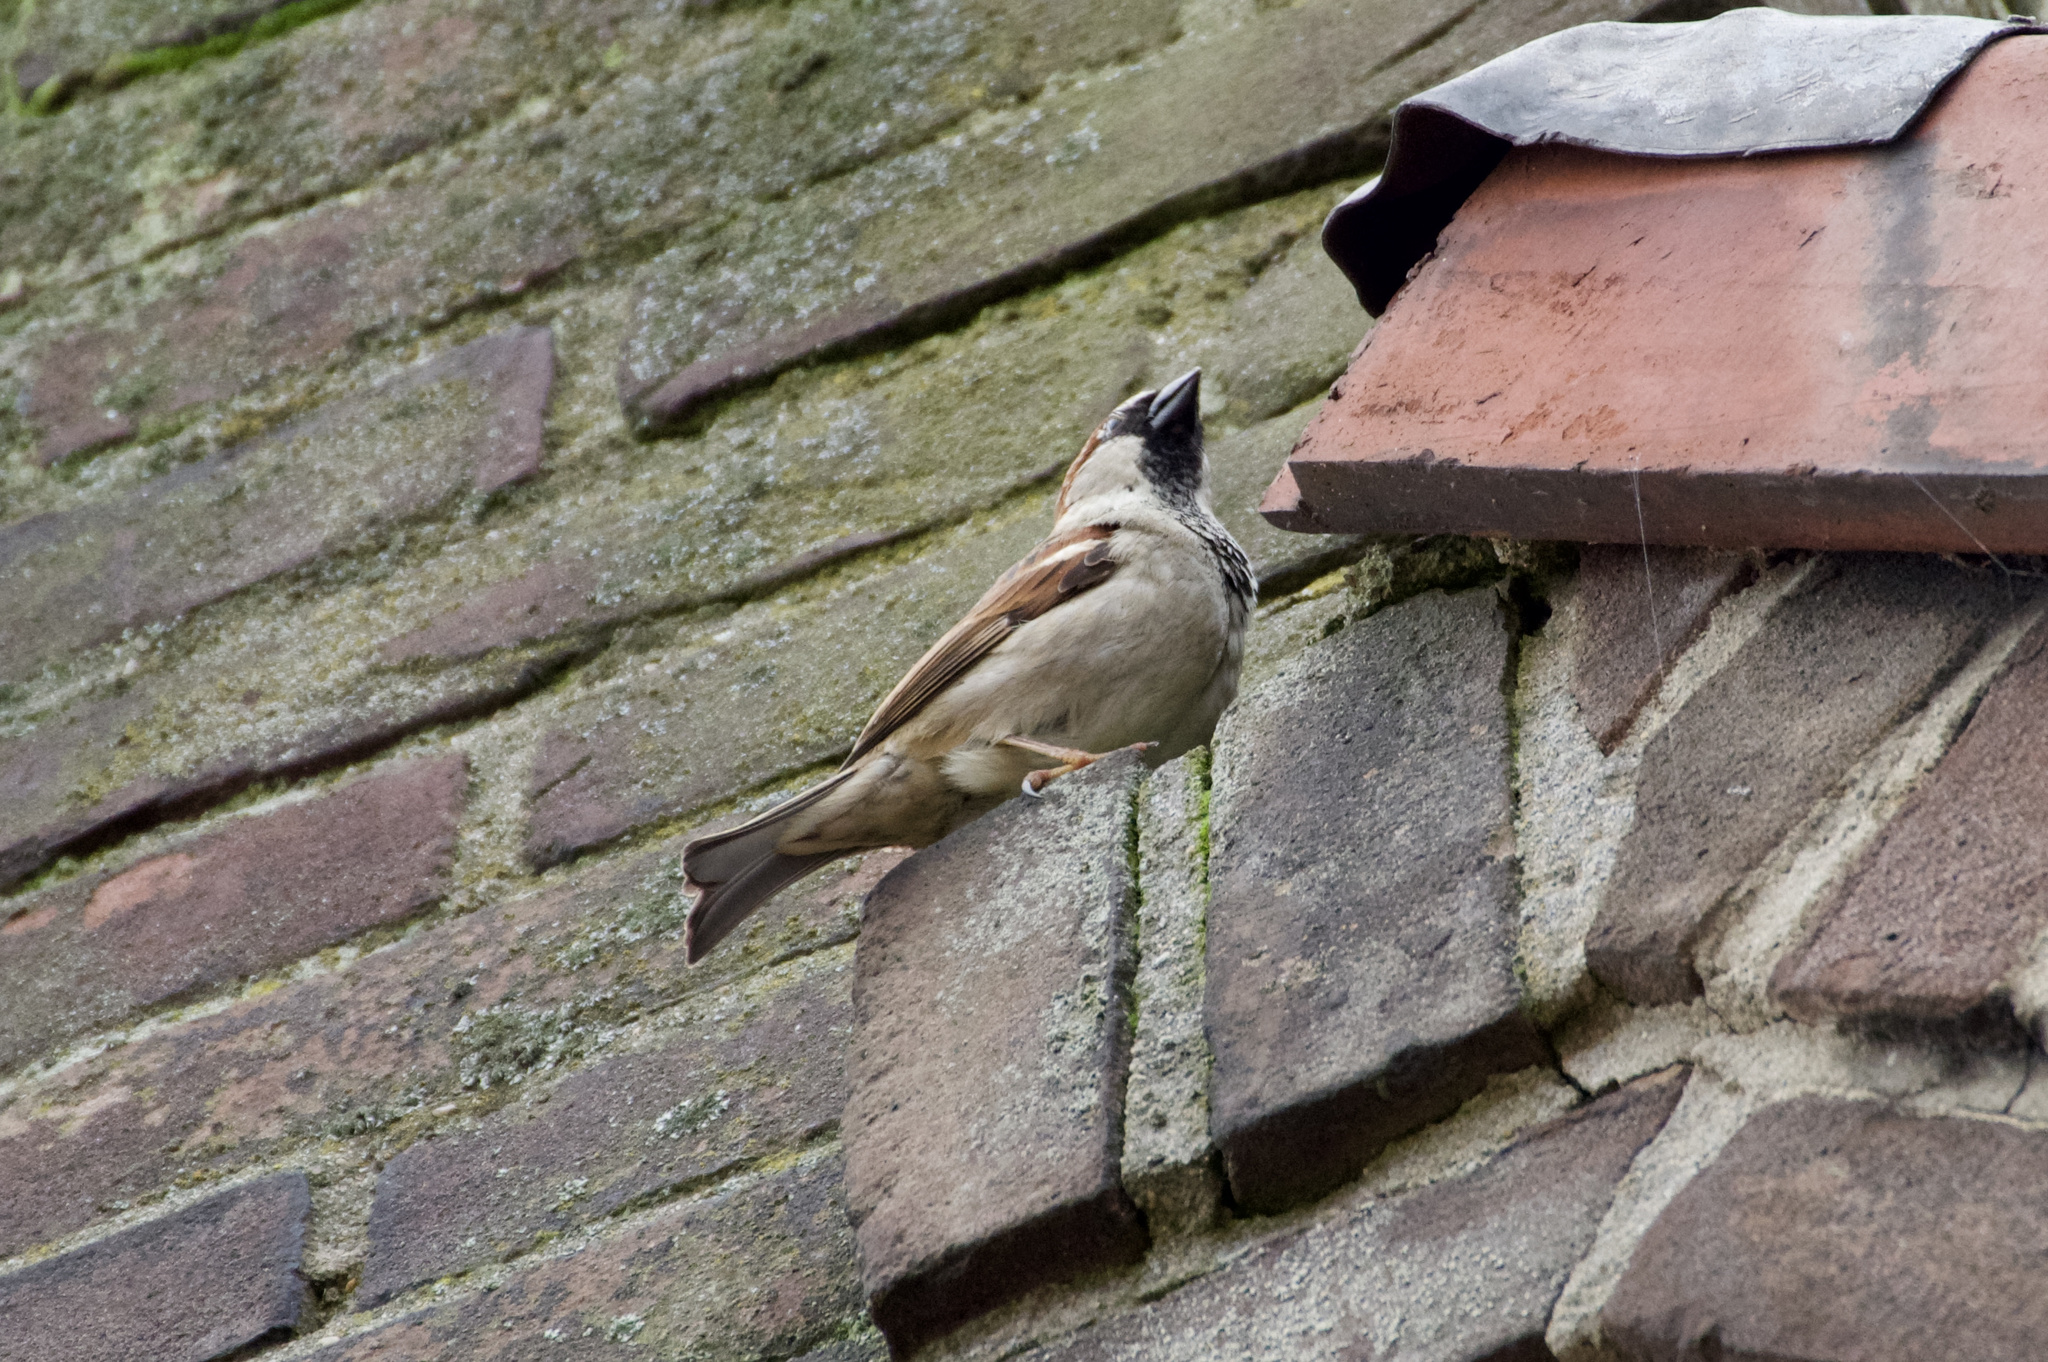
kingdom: Animalia
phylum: Chordata
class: Aves
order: Passeriformes
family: Passeridae
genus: Passer
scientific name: Passer domesticus
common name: House sparrow
